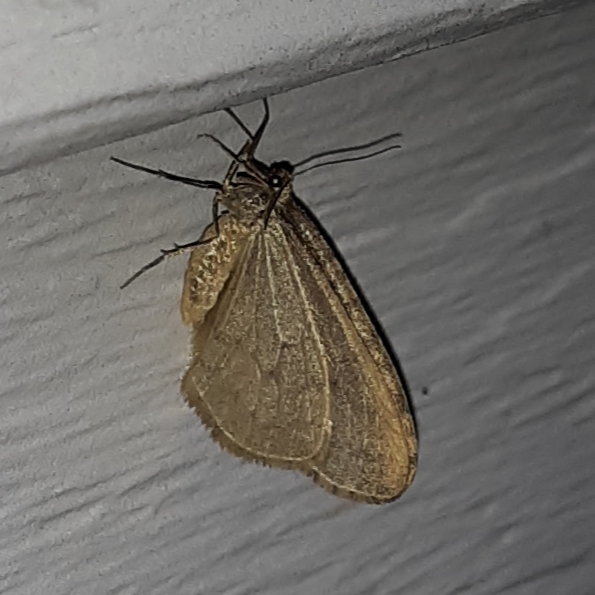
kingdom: Animalia
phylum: Arthropoda
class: Insecta
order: Lepidoptera
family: Geometridae
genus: Operophtera
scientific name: Operophtera bruceata
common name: Bruce spanworm
